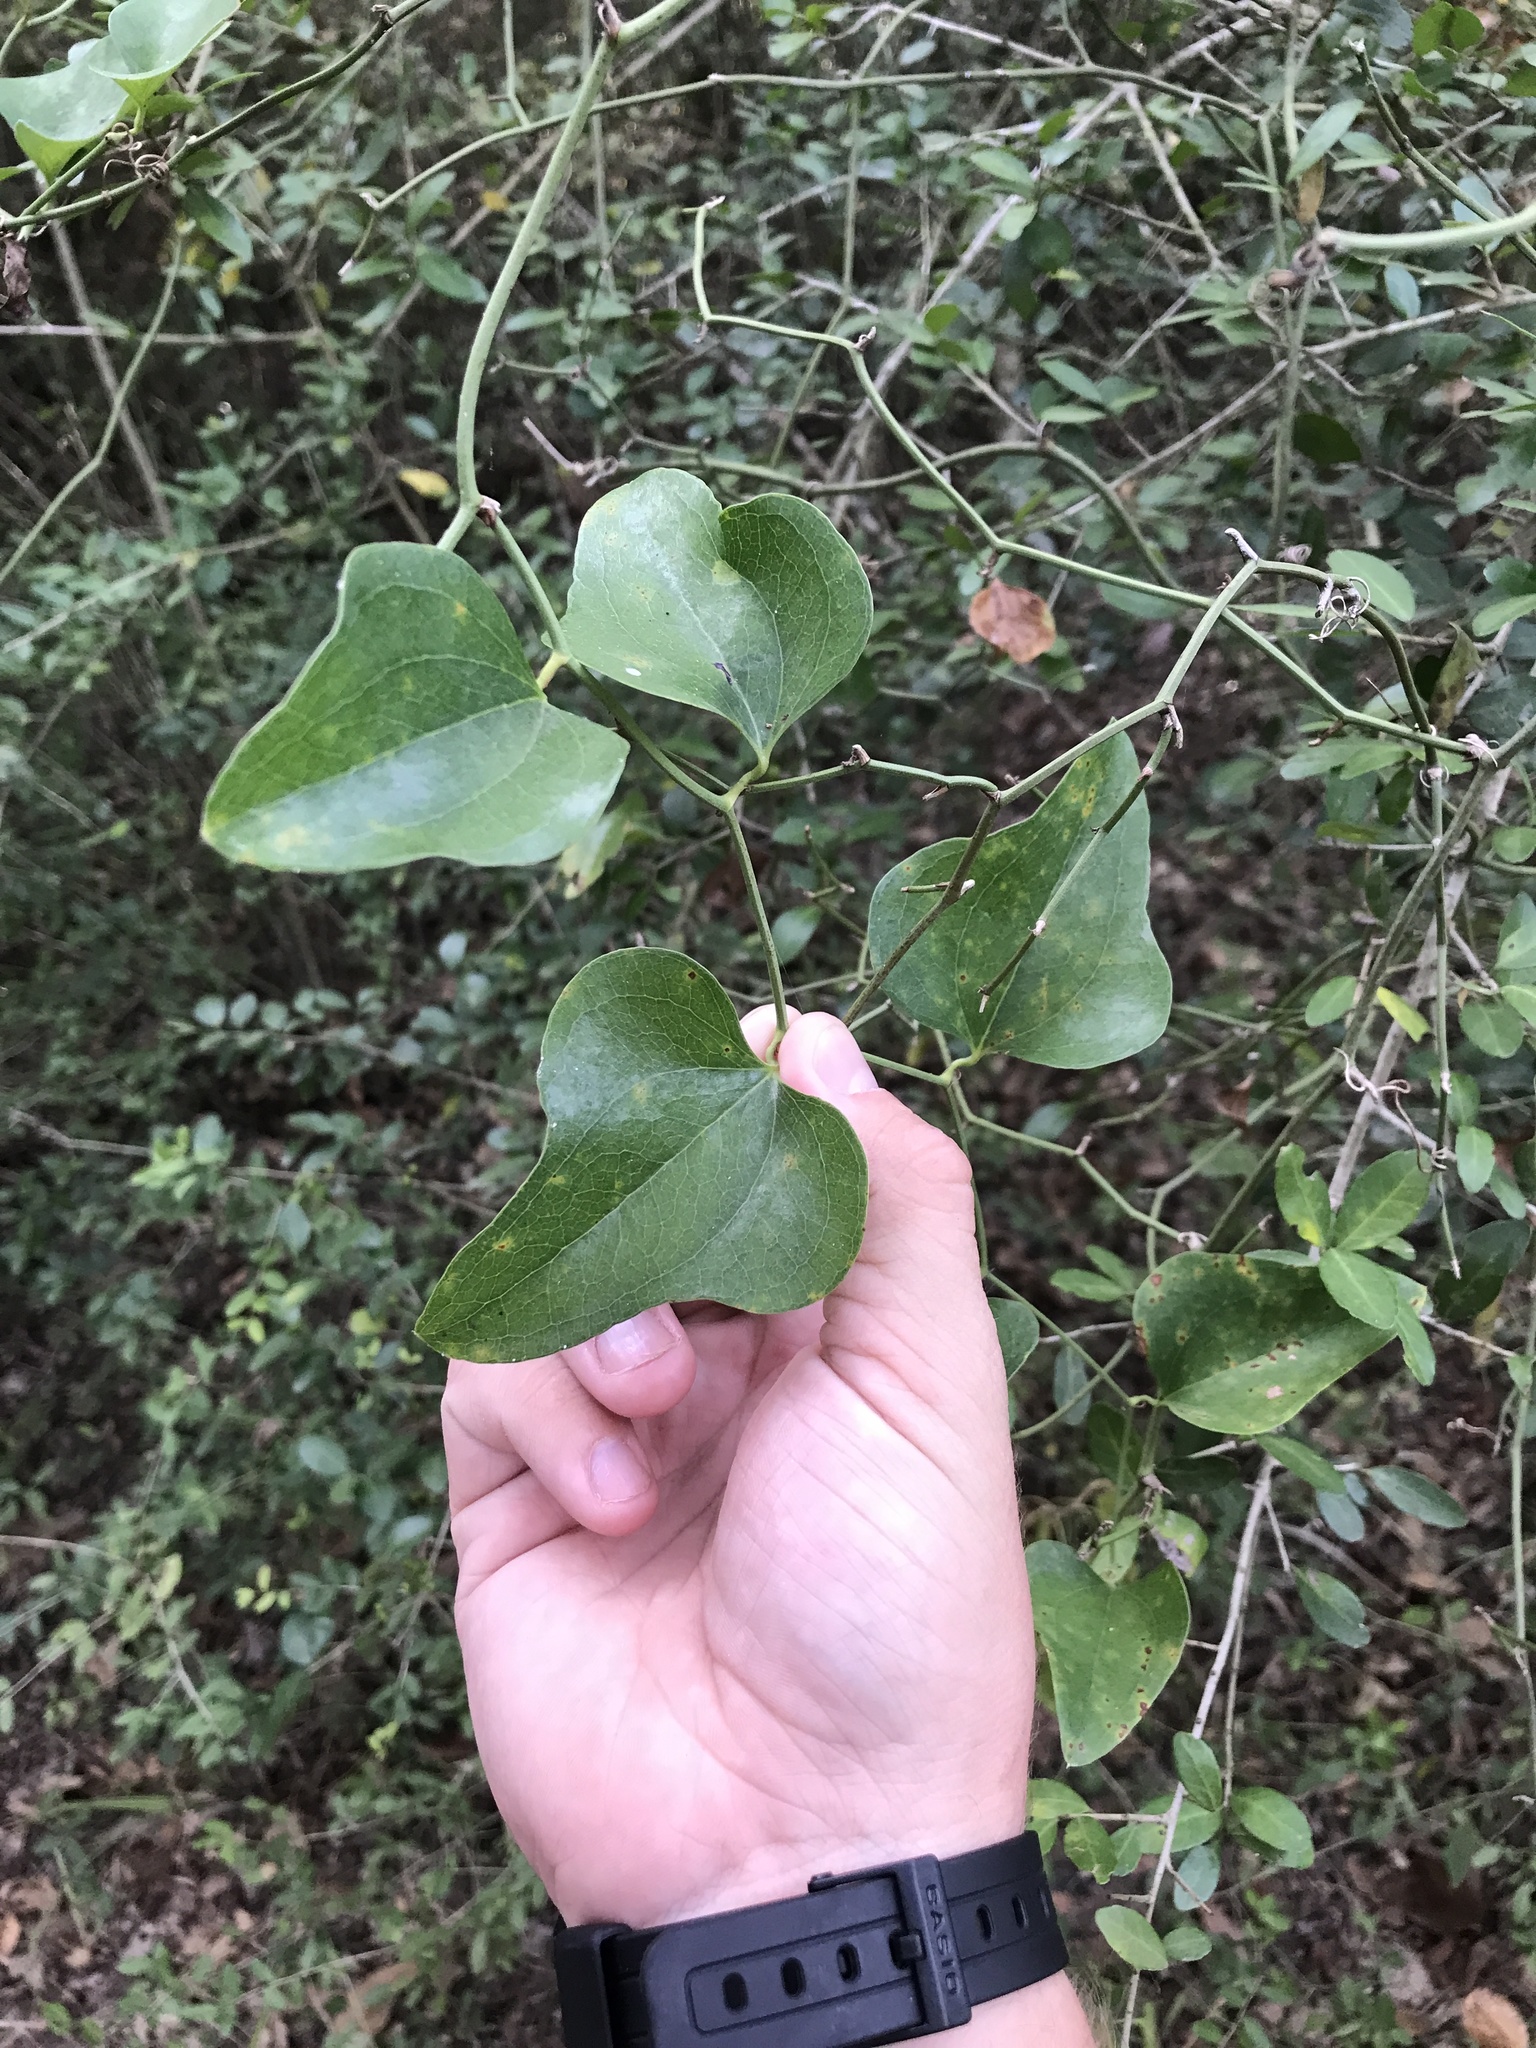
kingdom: Plantae
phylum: Tracheophyta
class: Liliopsida
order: Liliales
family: Smilacaceae
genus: Smilax
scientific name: Smilax bona-nox
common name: Catbrier
